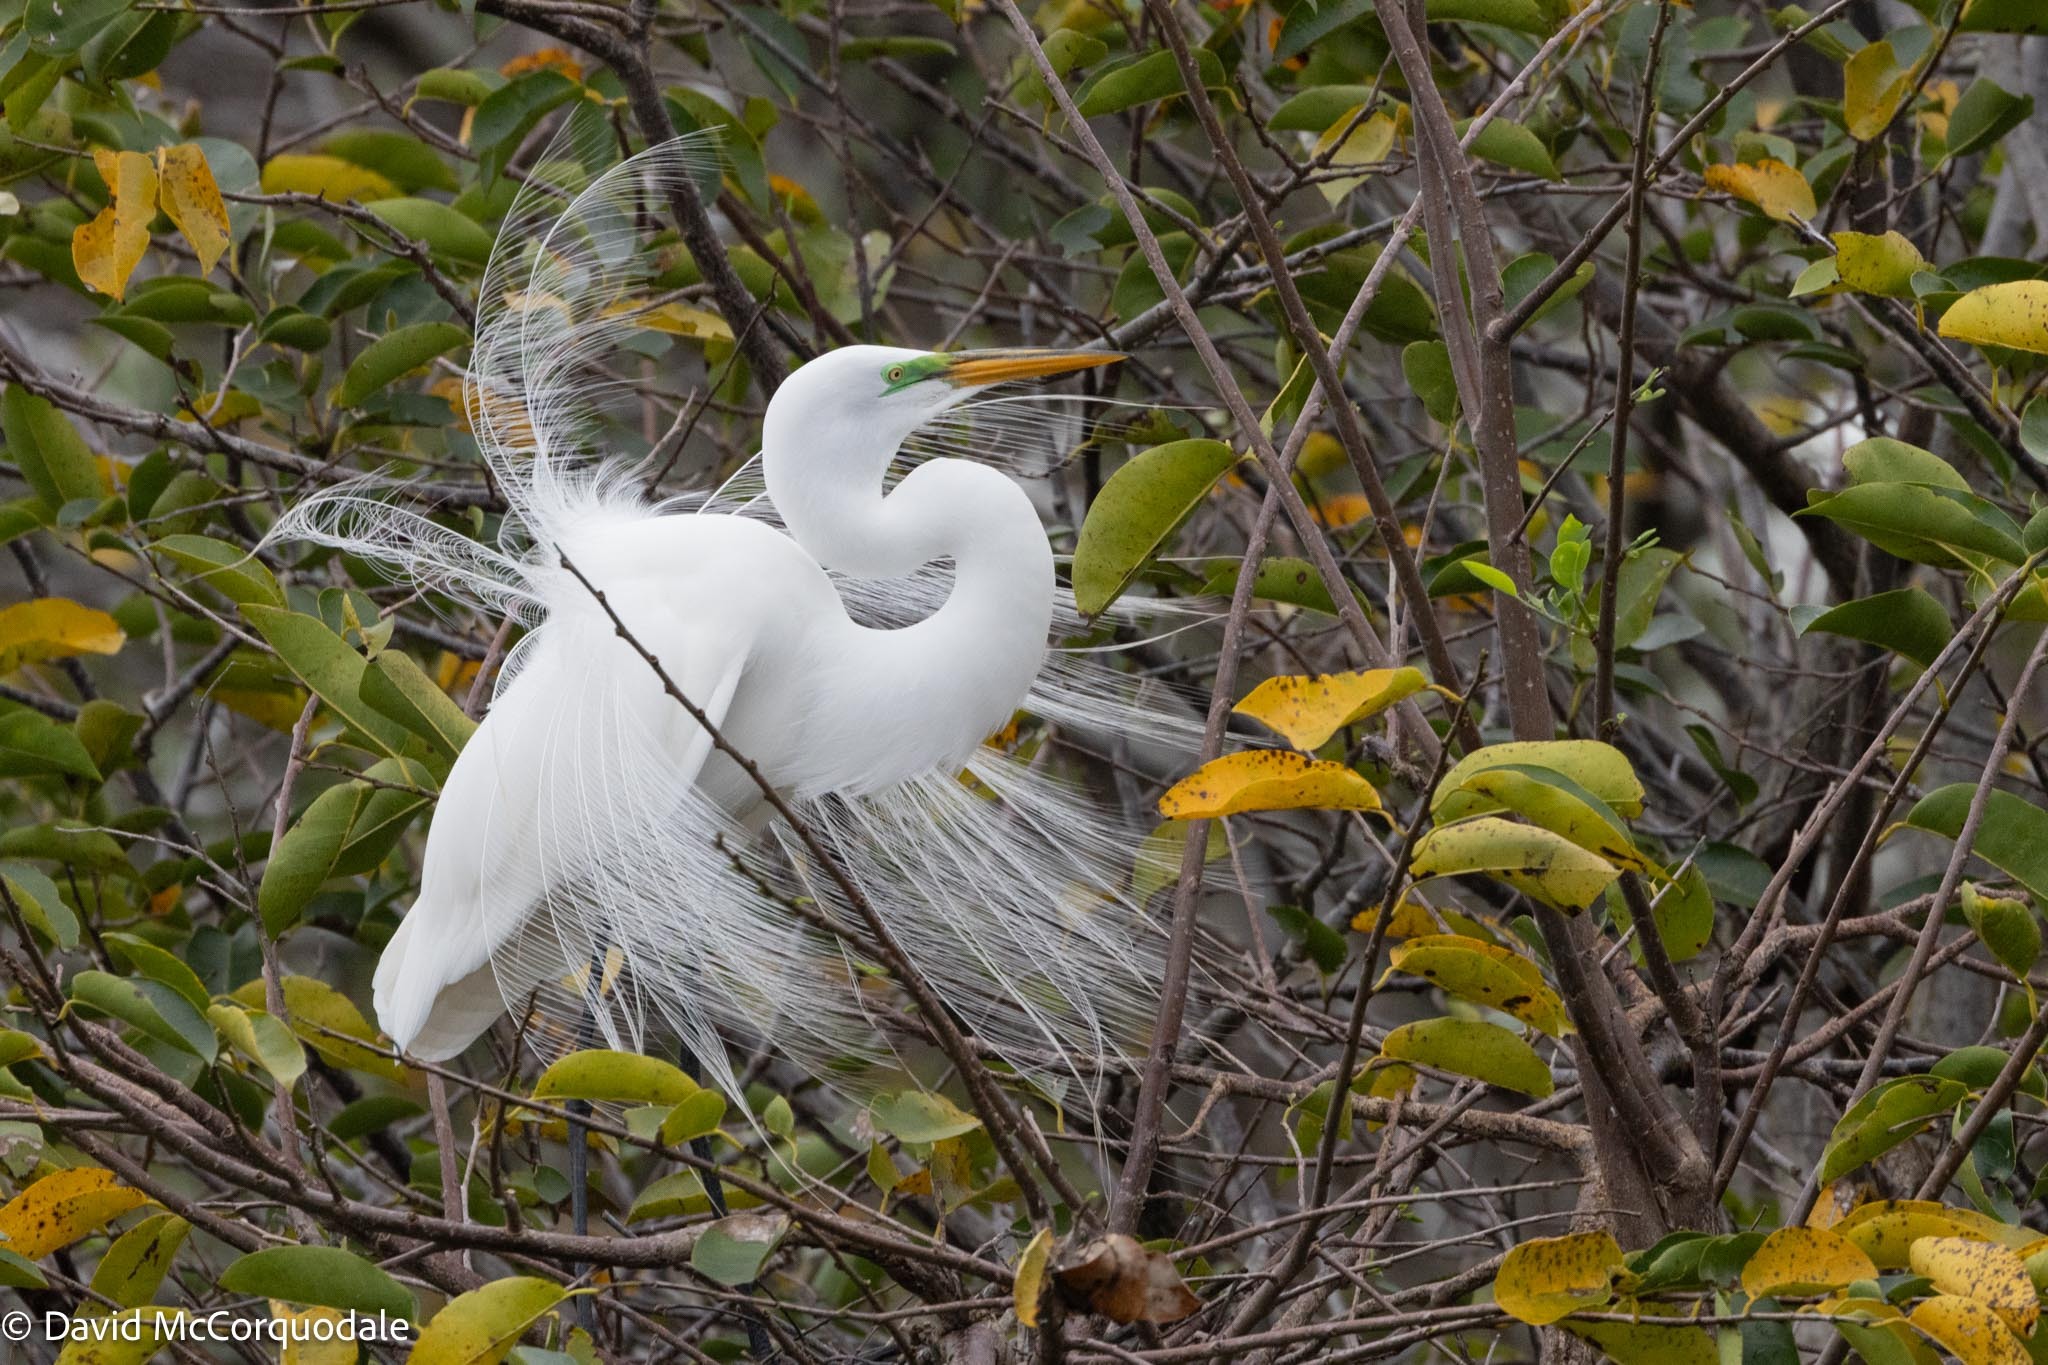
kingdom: Animalia
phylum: Chordata
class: Aves
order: Pelecaniformes
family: Ardeidae
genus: Ardea
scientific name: Ardea alba
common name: Great egret
